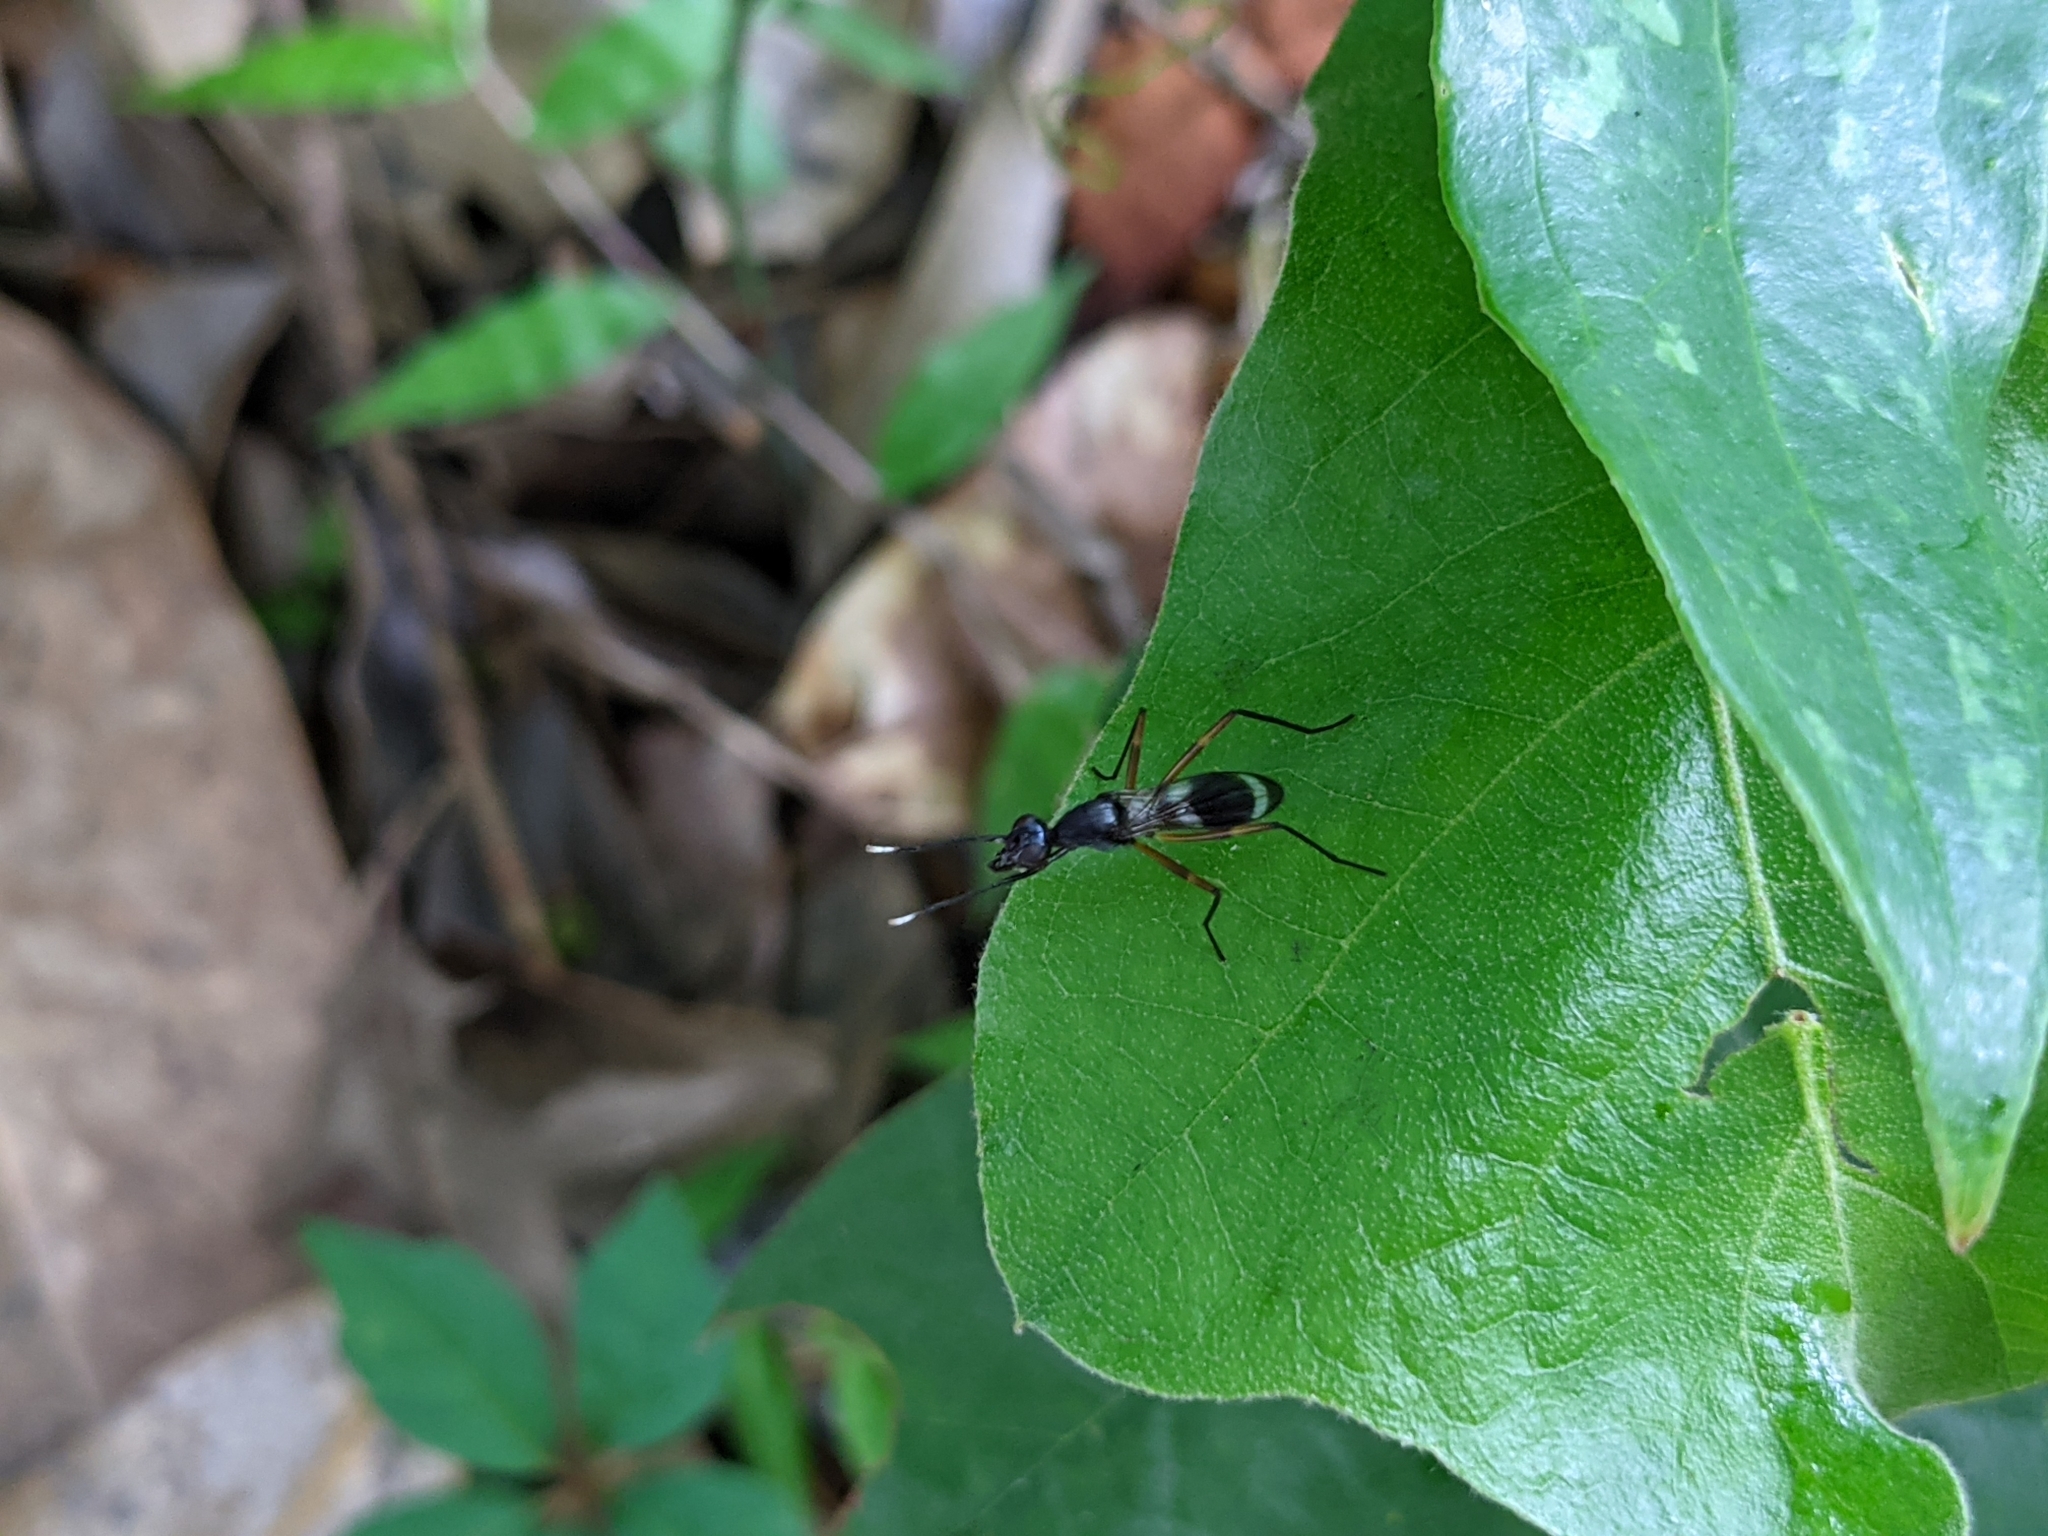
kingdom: Animalia
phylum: Arthropoda
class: Insecta
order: Diptera
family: Micropezidae
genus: Taeniaptera
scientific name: Taeniaptera trivittata
